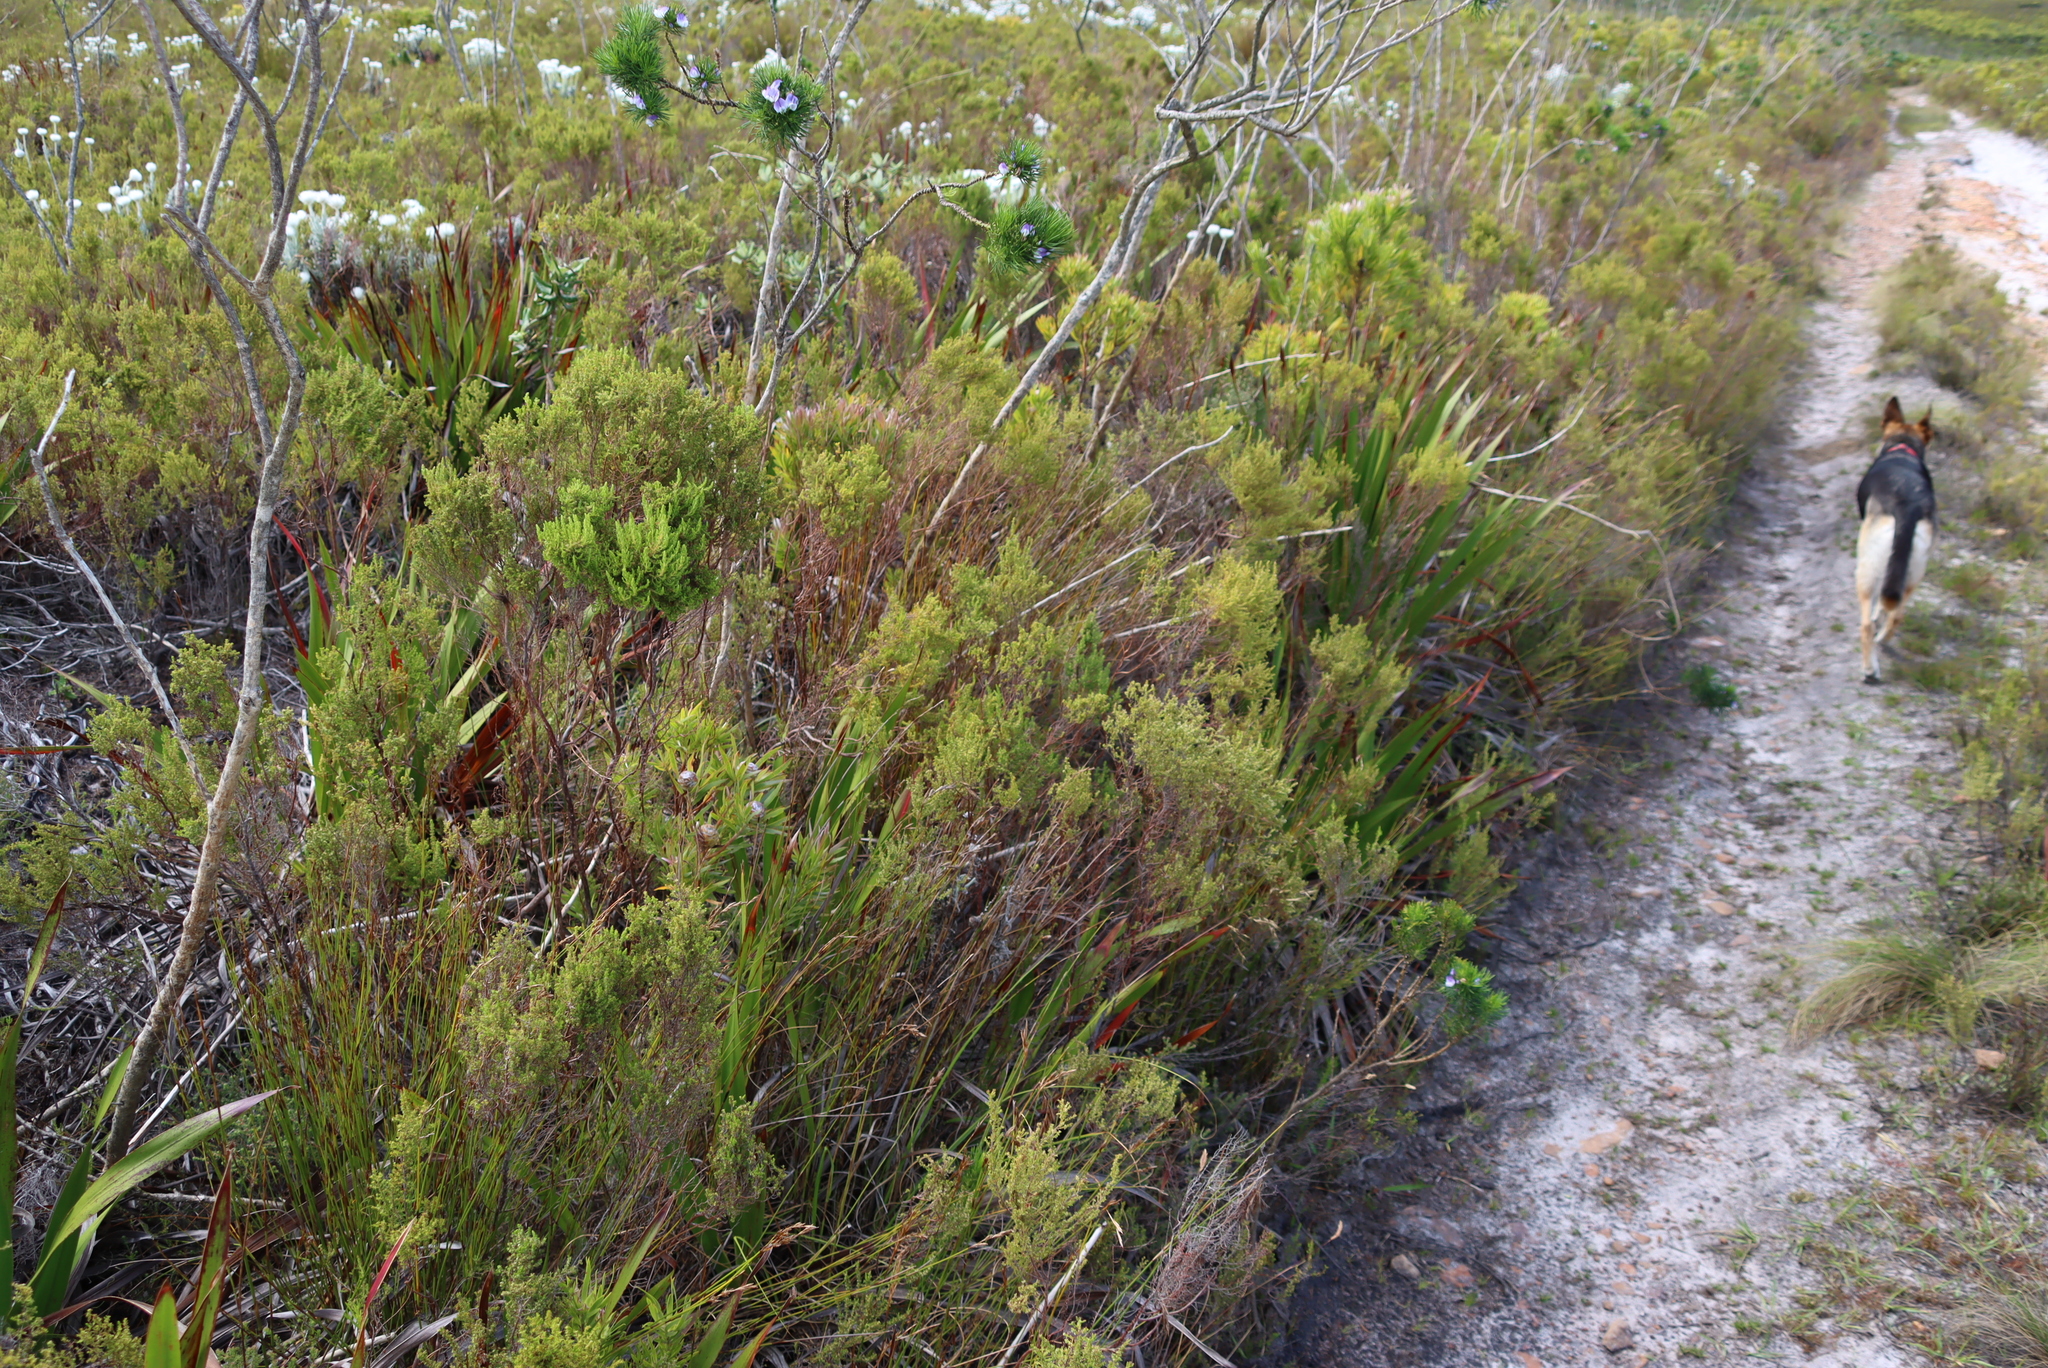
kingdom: Plantae
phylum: Tracheophyta
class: Magnoliopsida
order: Ericales
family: Ericaceae
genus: Erica
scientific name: Erica muscosa
